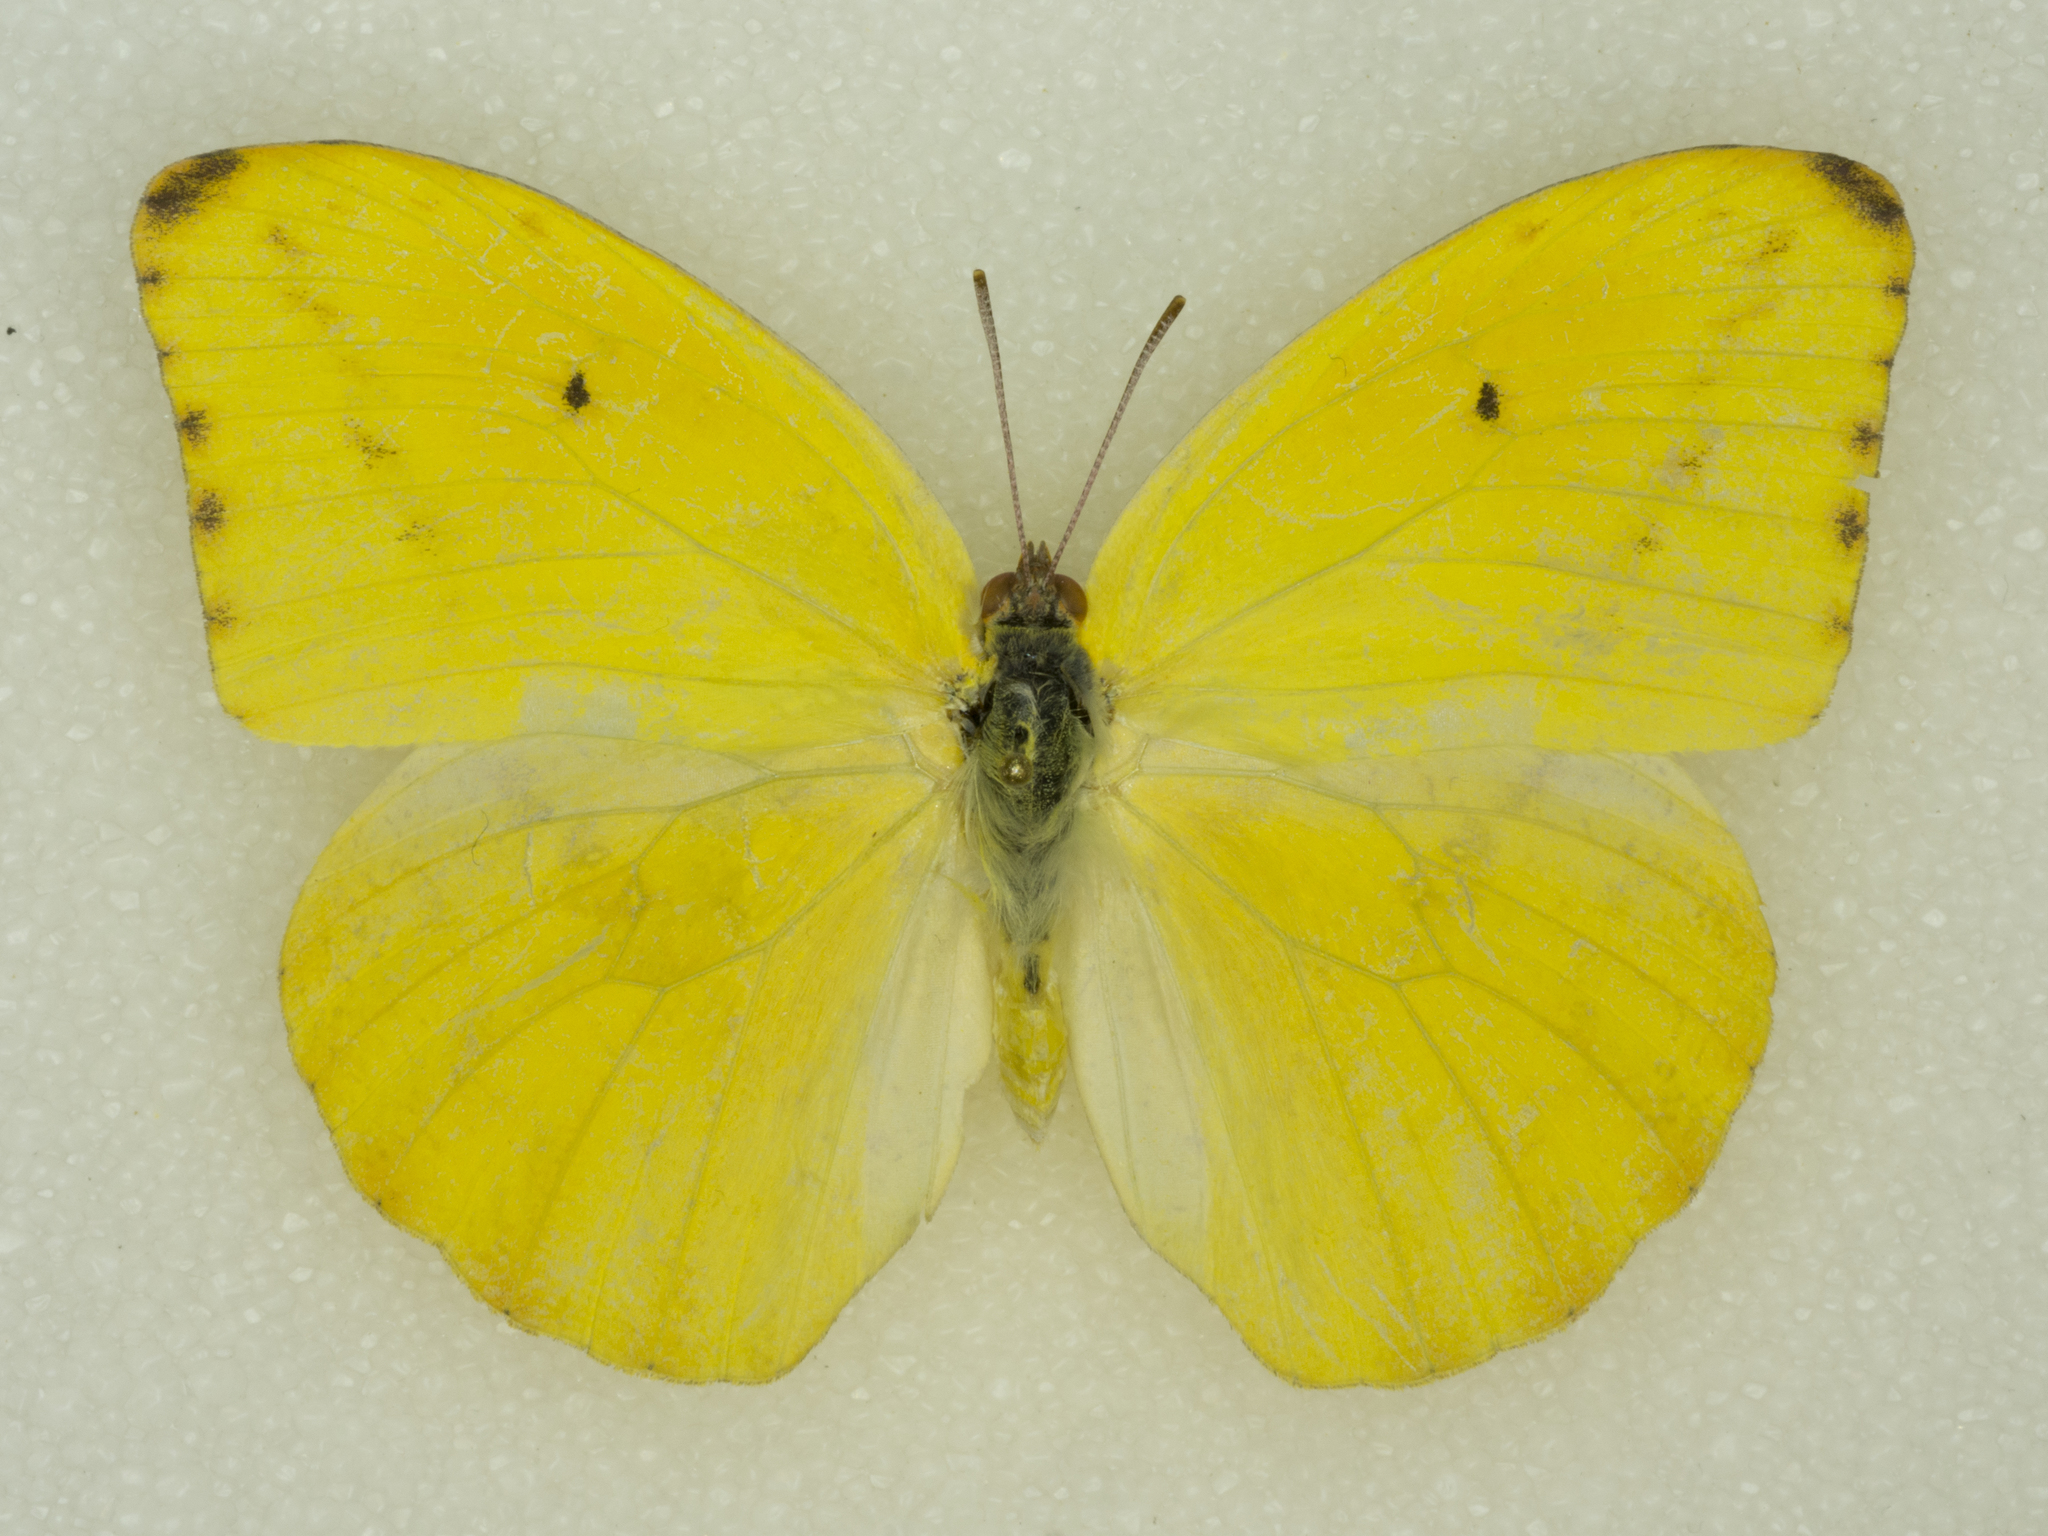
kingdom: Animalia
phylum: Arthropoda
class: Insecta
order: Lepidoptera
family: Pieridae
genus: Phoebis
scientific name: Phoebis agarithe
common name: Large orange sulphur
